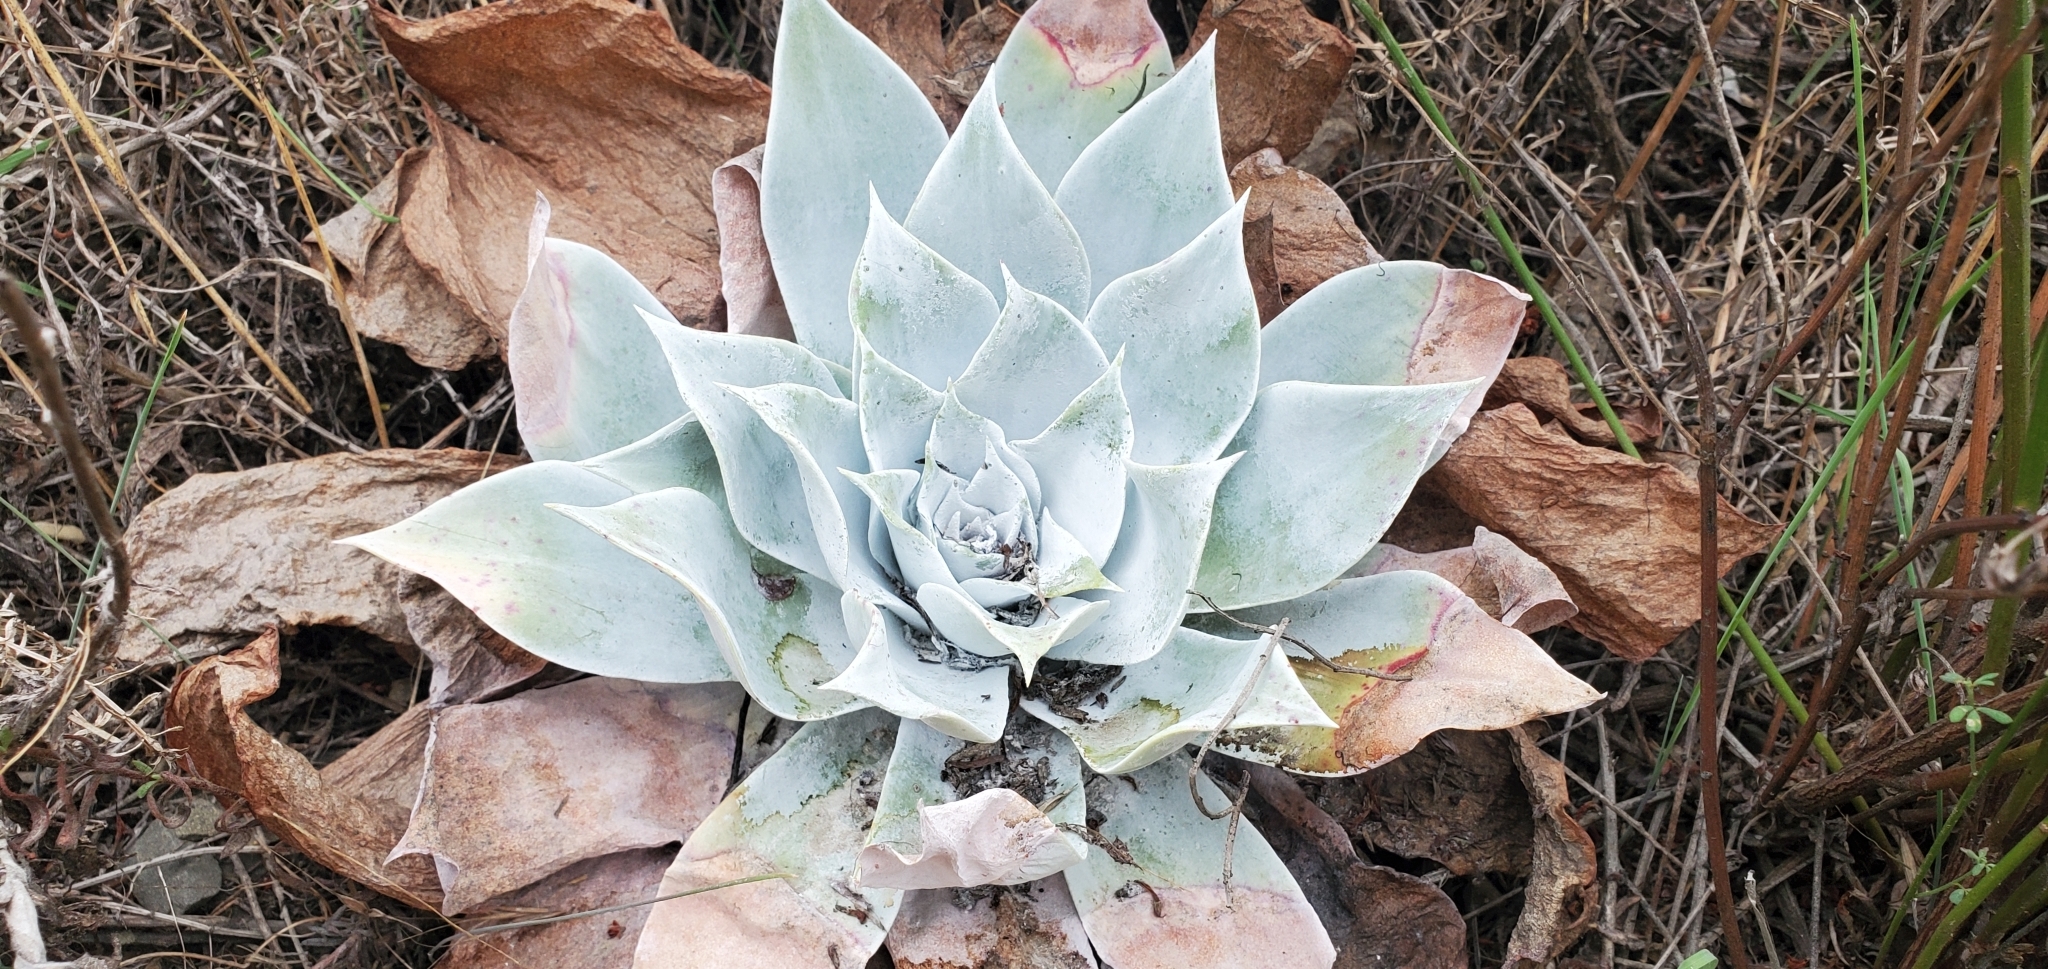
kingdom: Plantae
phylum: Tracheophyta
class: Magnoliopsida
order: Saxifragales
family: Crassulaceae
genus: Dudleya
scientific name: Dudleya pulverulenta
